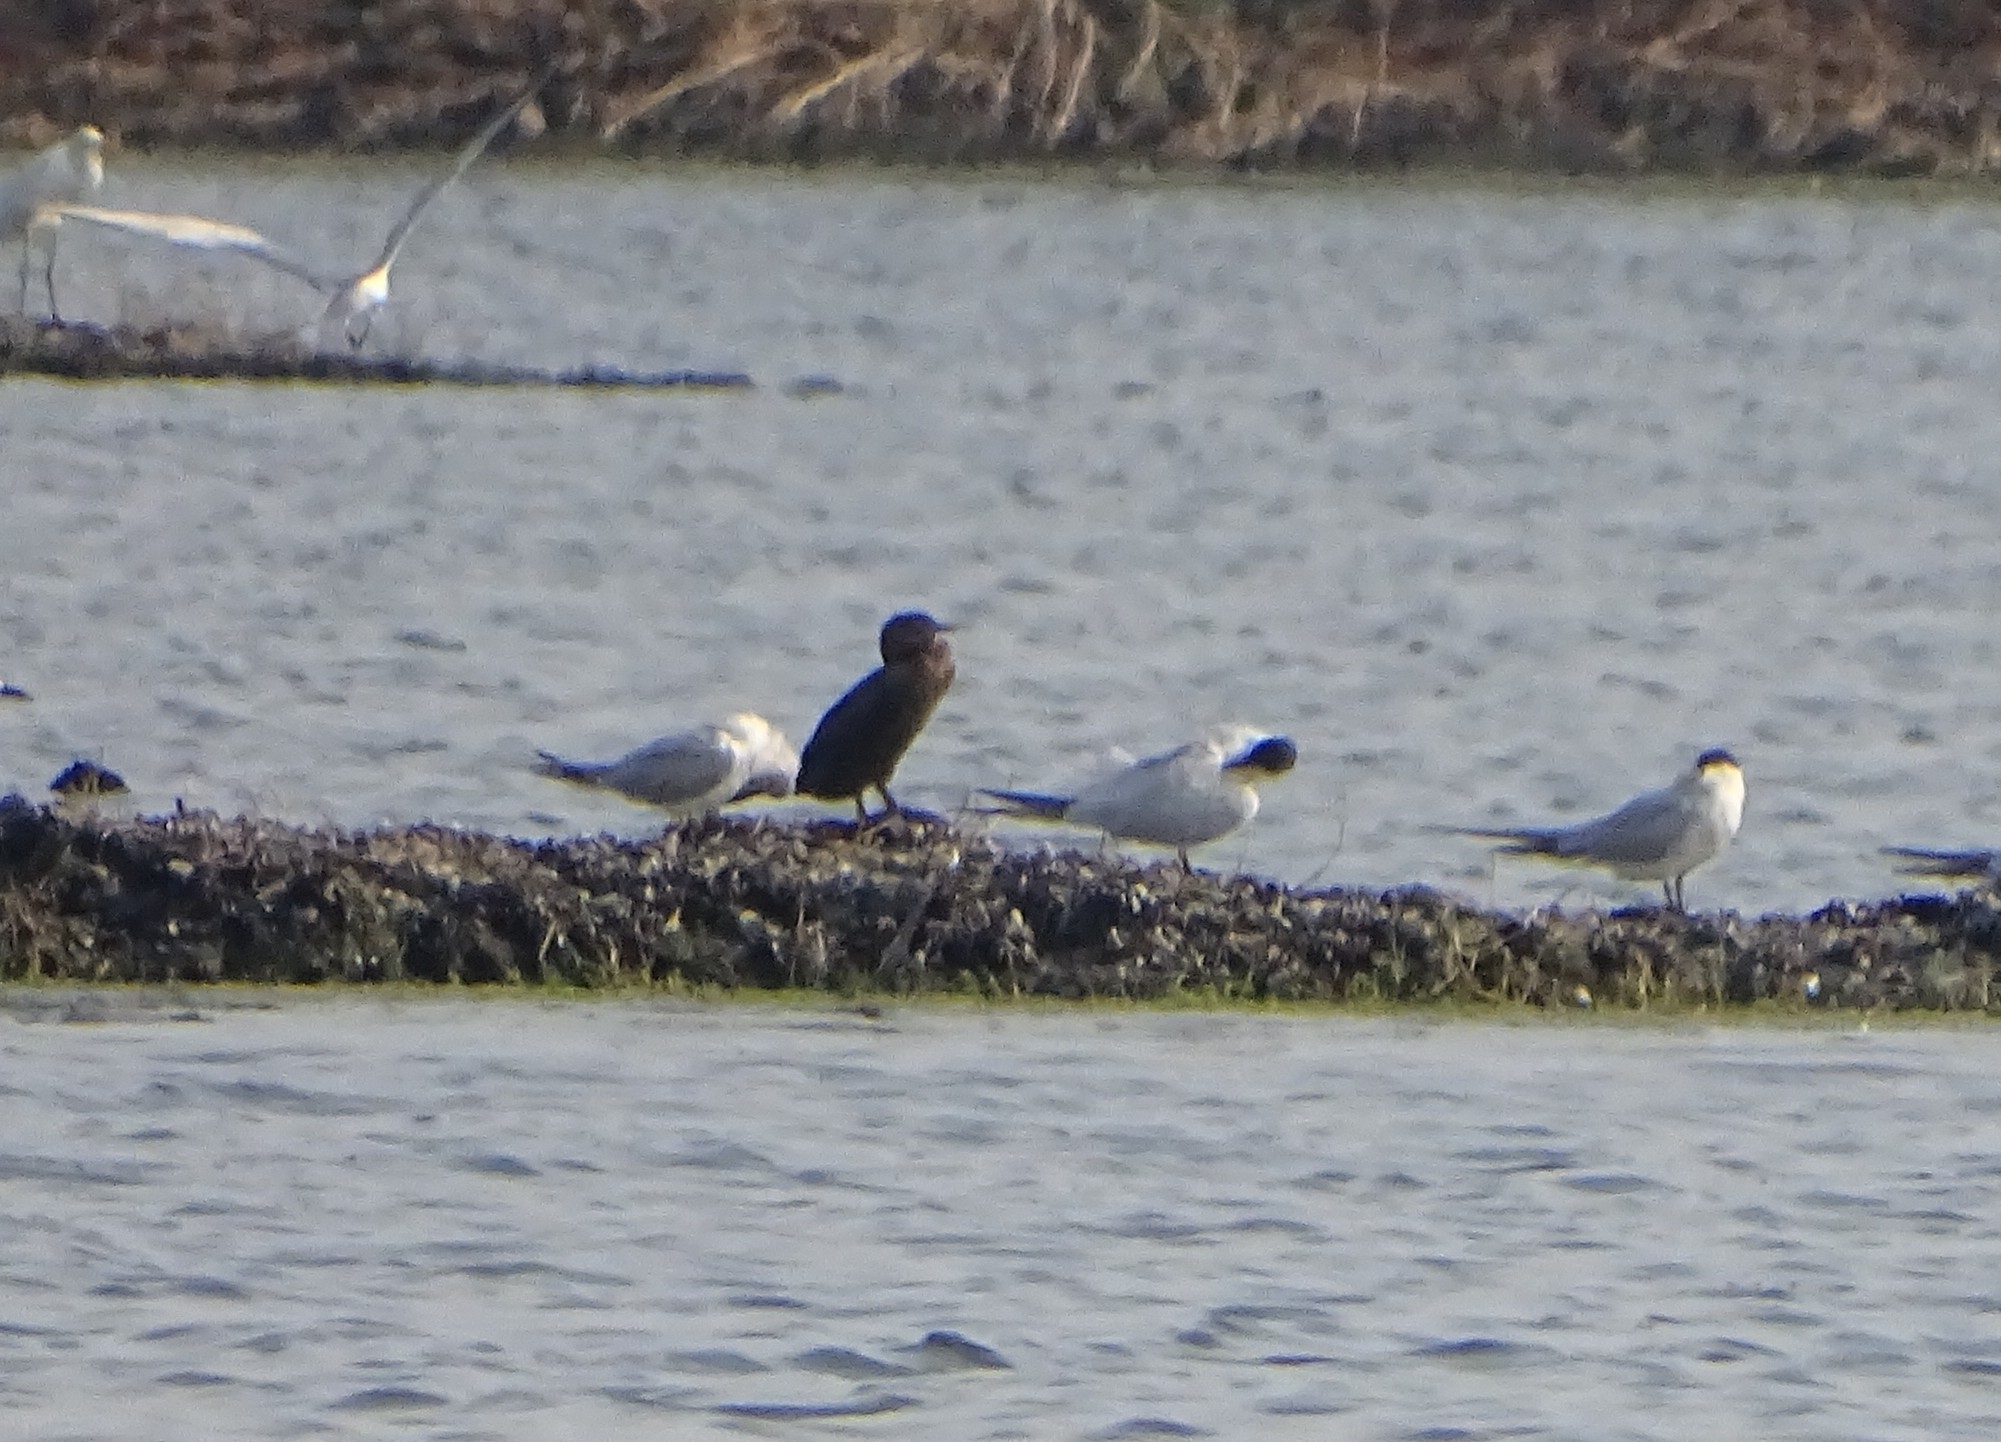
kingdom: Animalia
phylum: Chordata
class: Aves
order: Suliformes
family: Phalacrocoracidae
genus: Microcarbo
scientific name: Microcarbo niger
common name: Little cormorant
